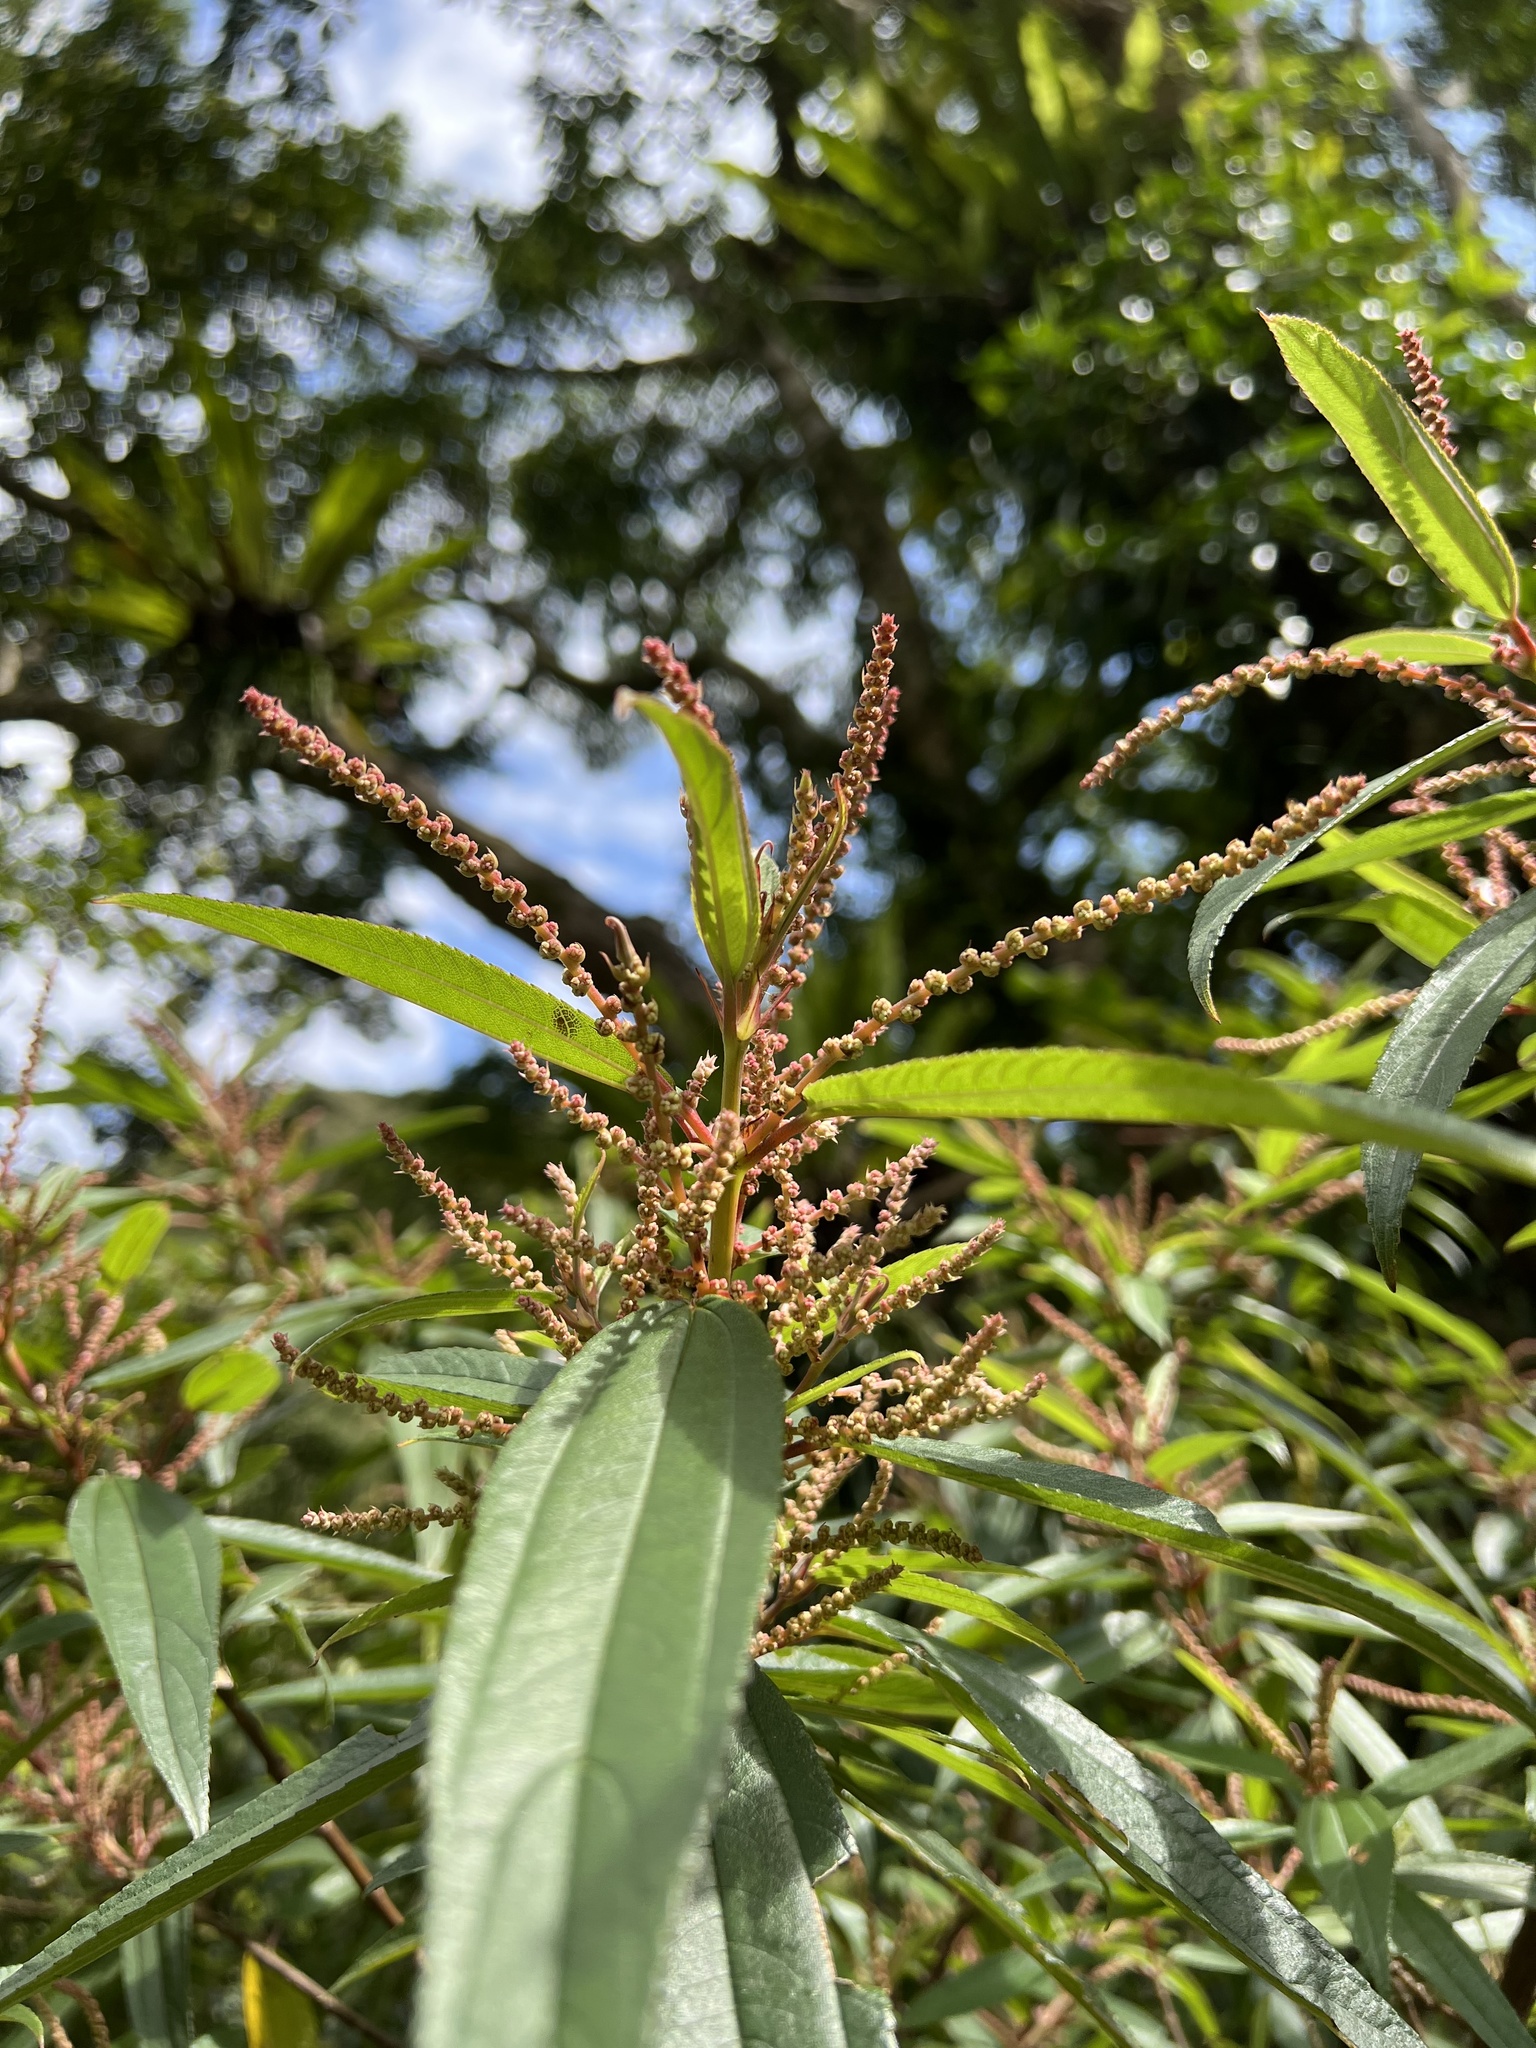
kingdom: Plantae
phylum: Tracheophyta
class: Magnoliopsida
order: Rosales
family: Urticaceae
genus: Boehmeria
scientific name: Boehmeria densiflora
